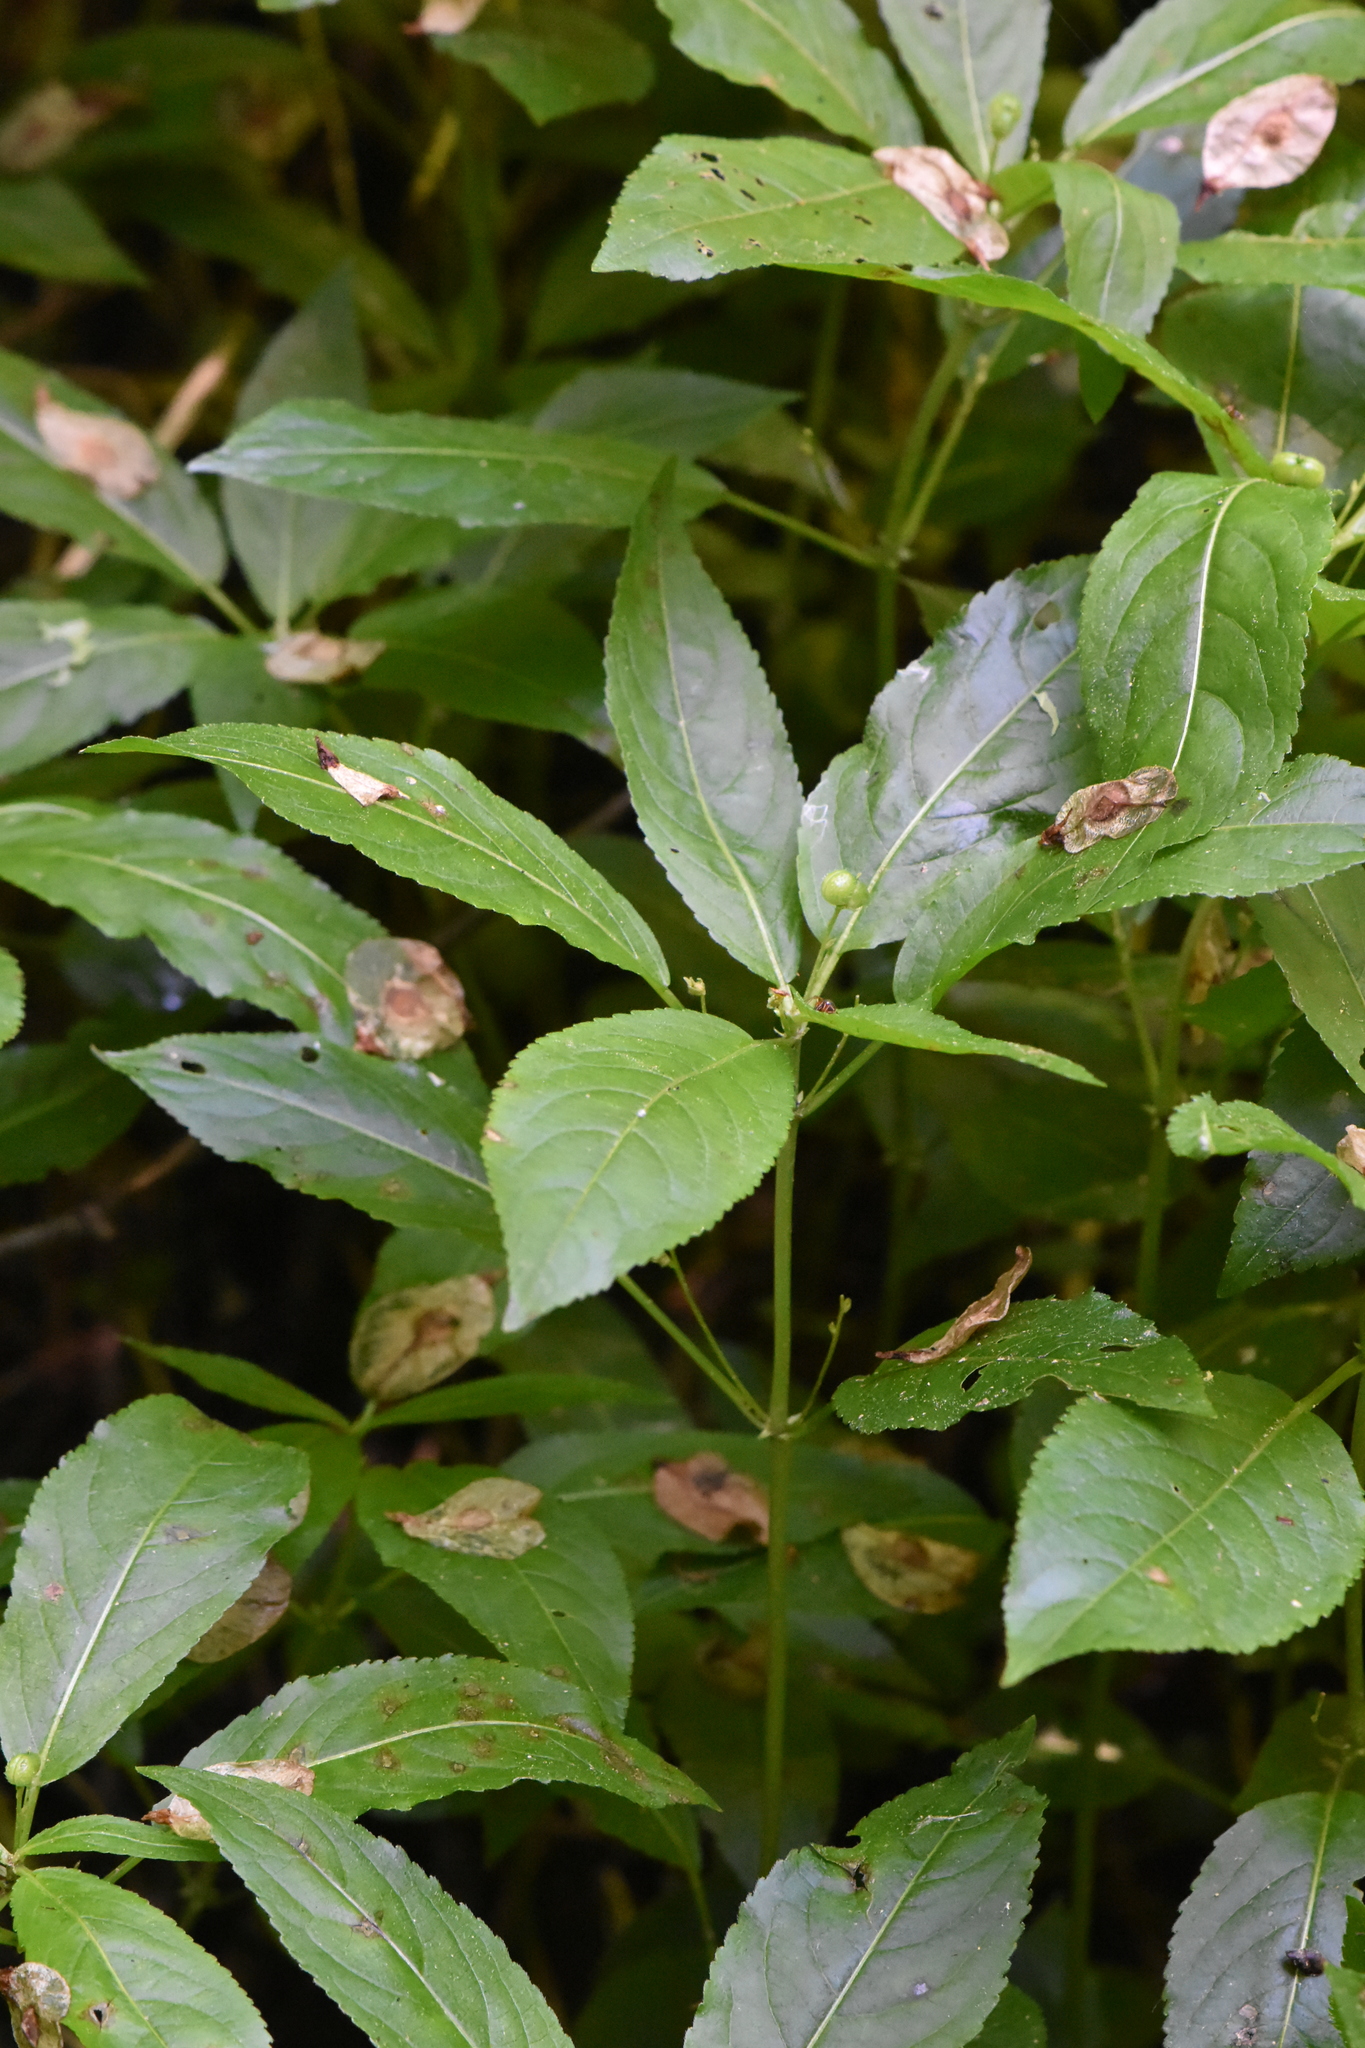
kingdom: Plantae
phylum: Tracheophyta
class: Magnoliopsida
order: Malpighiales
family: Euphorbiaceae
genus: Mercurialis
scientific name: Mercurialis perennis
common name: Dog mercury
